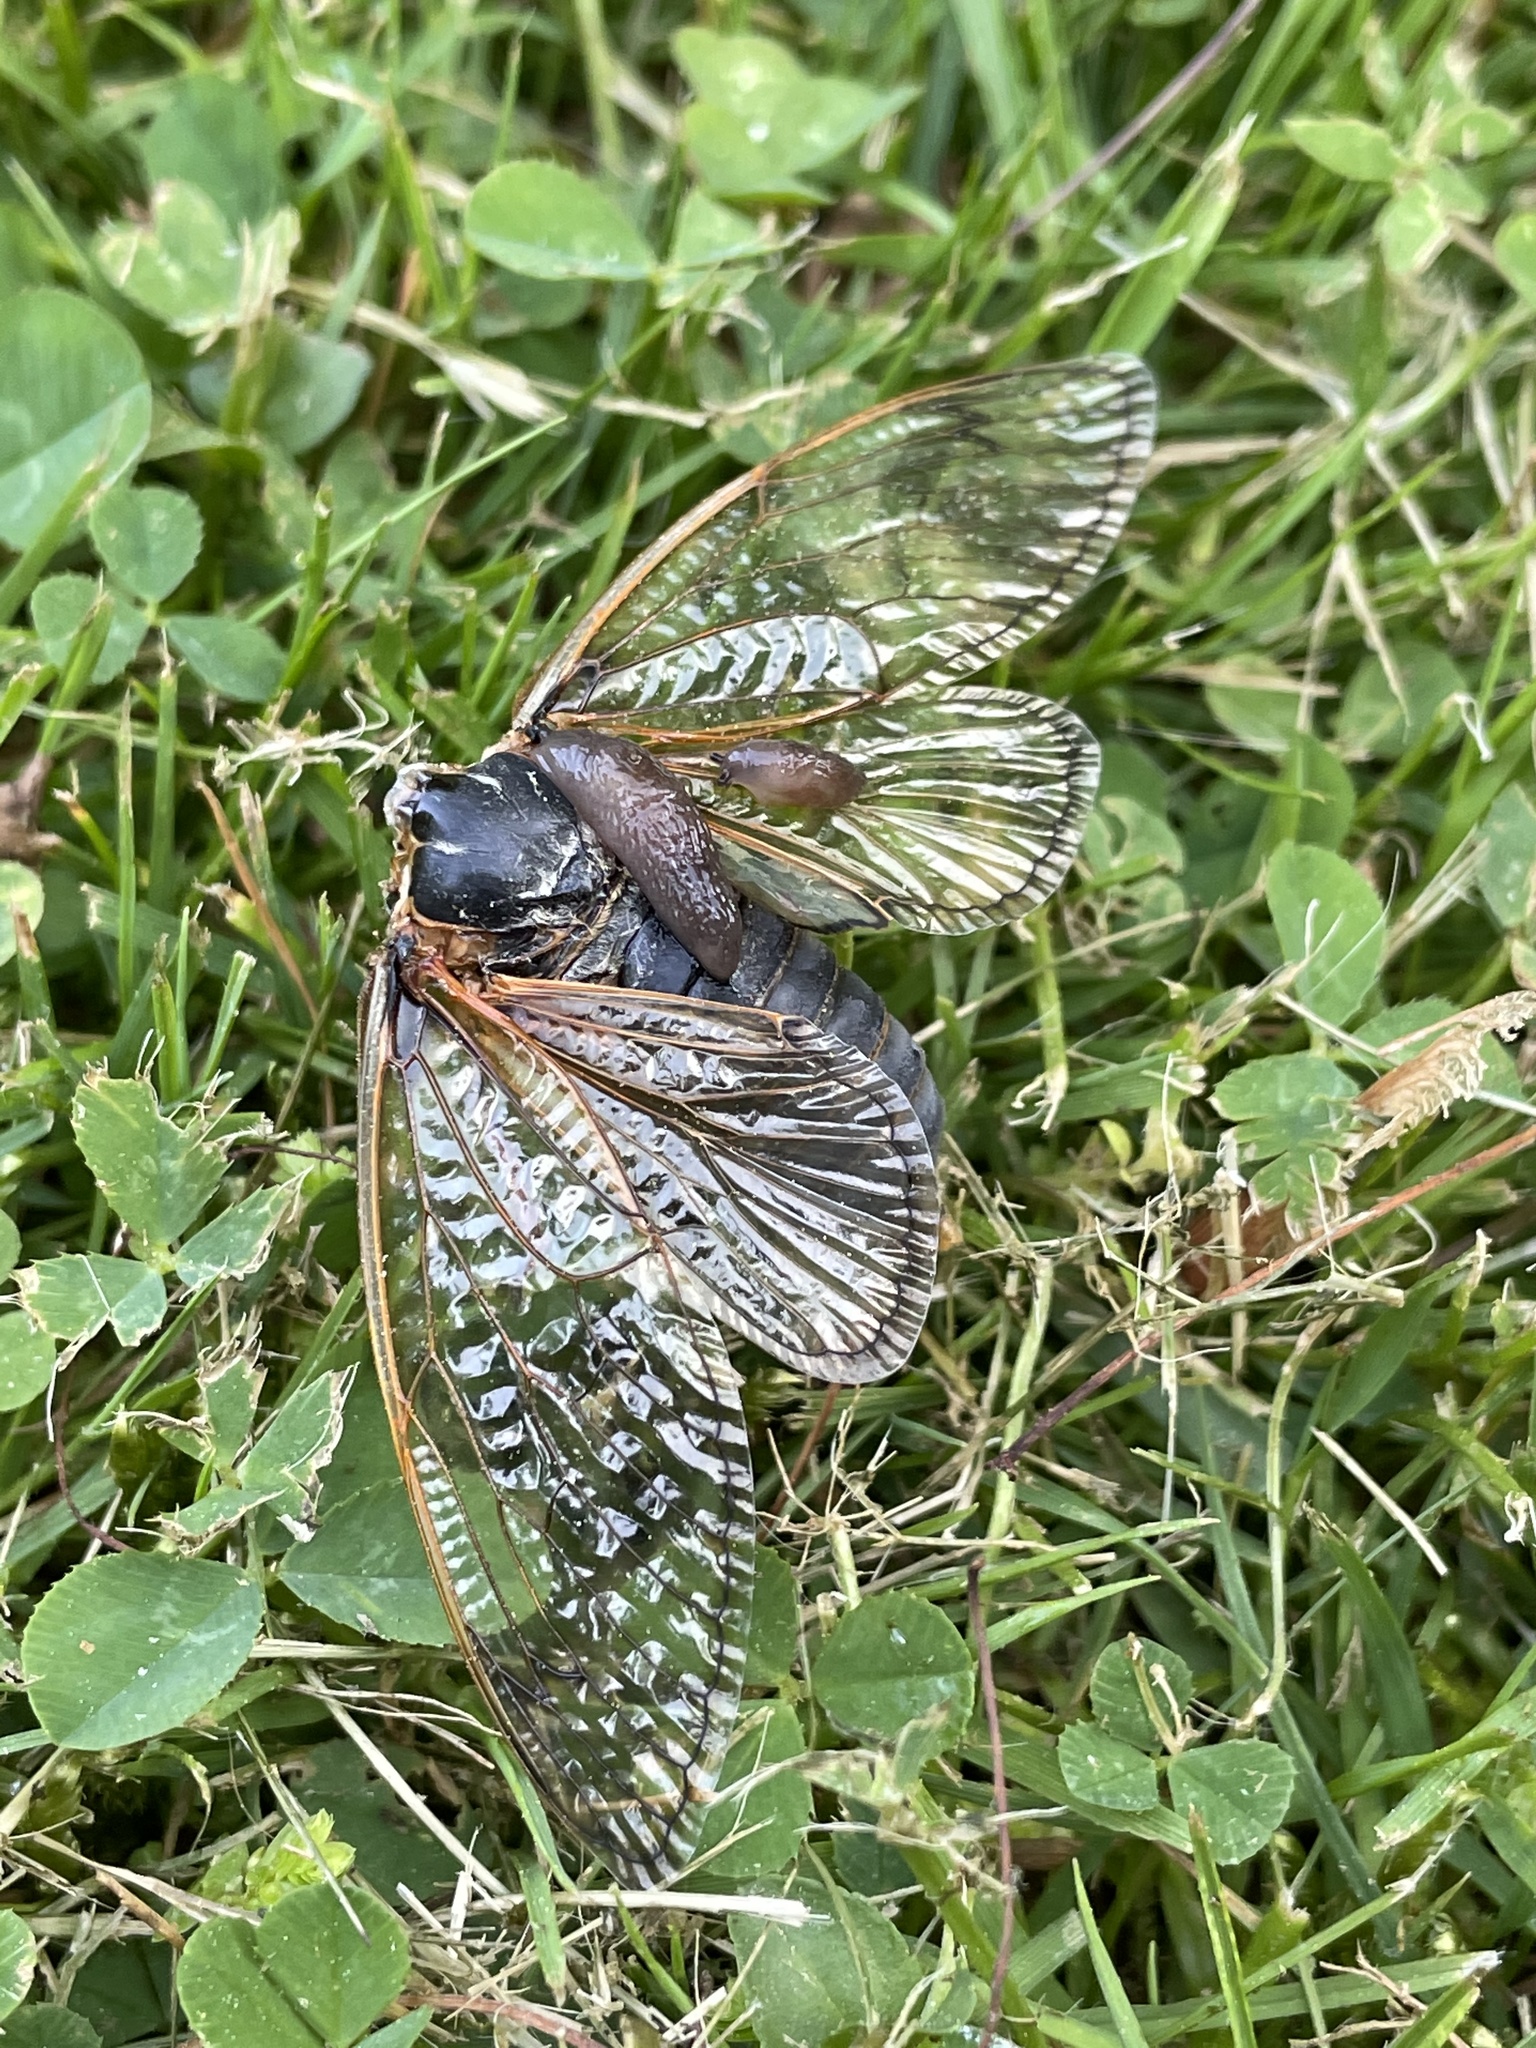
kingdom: Animalia
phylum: Arthropoda
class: Insecta
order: Hemiptera
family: Cicadidae
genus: Magicicada
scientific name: Magicicada
